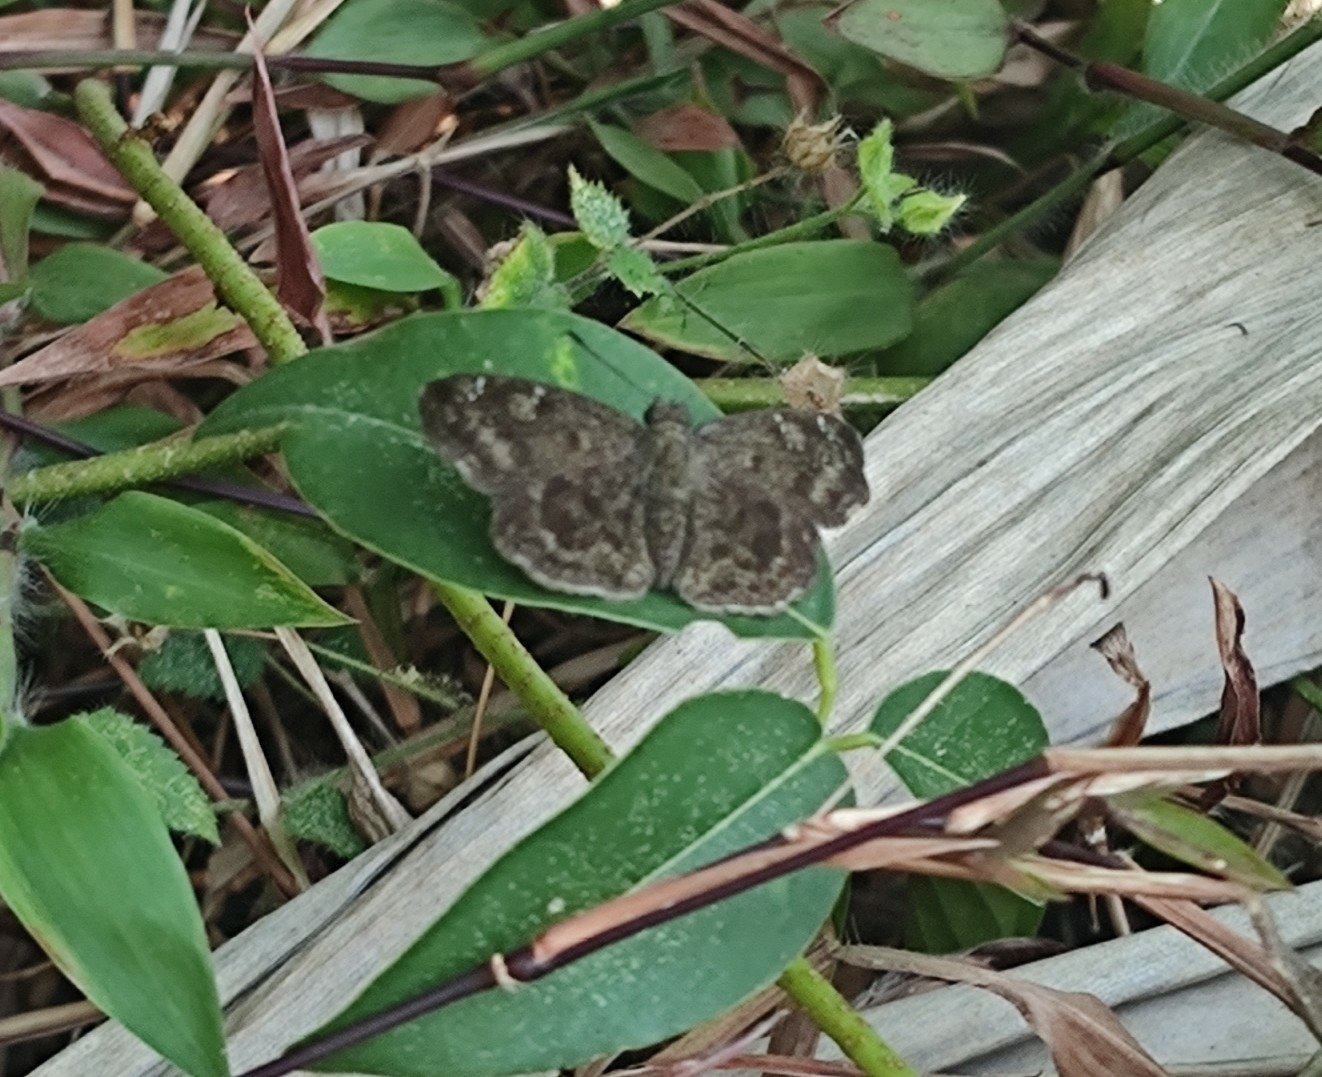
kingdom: Animalia
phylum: Arthropoda
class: Insecta
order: Lepidoptera
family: Hesperiidae
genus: Sarangesa
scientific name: Sarangesa dasahara
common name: Common small flat
